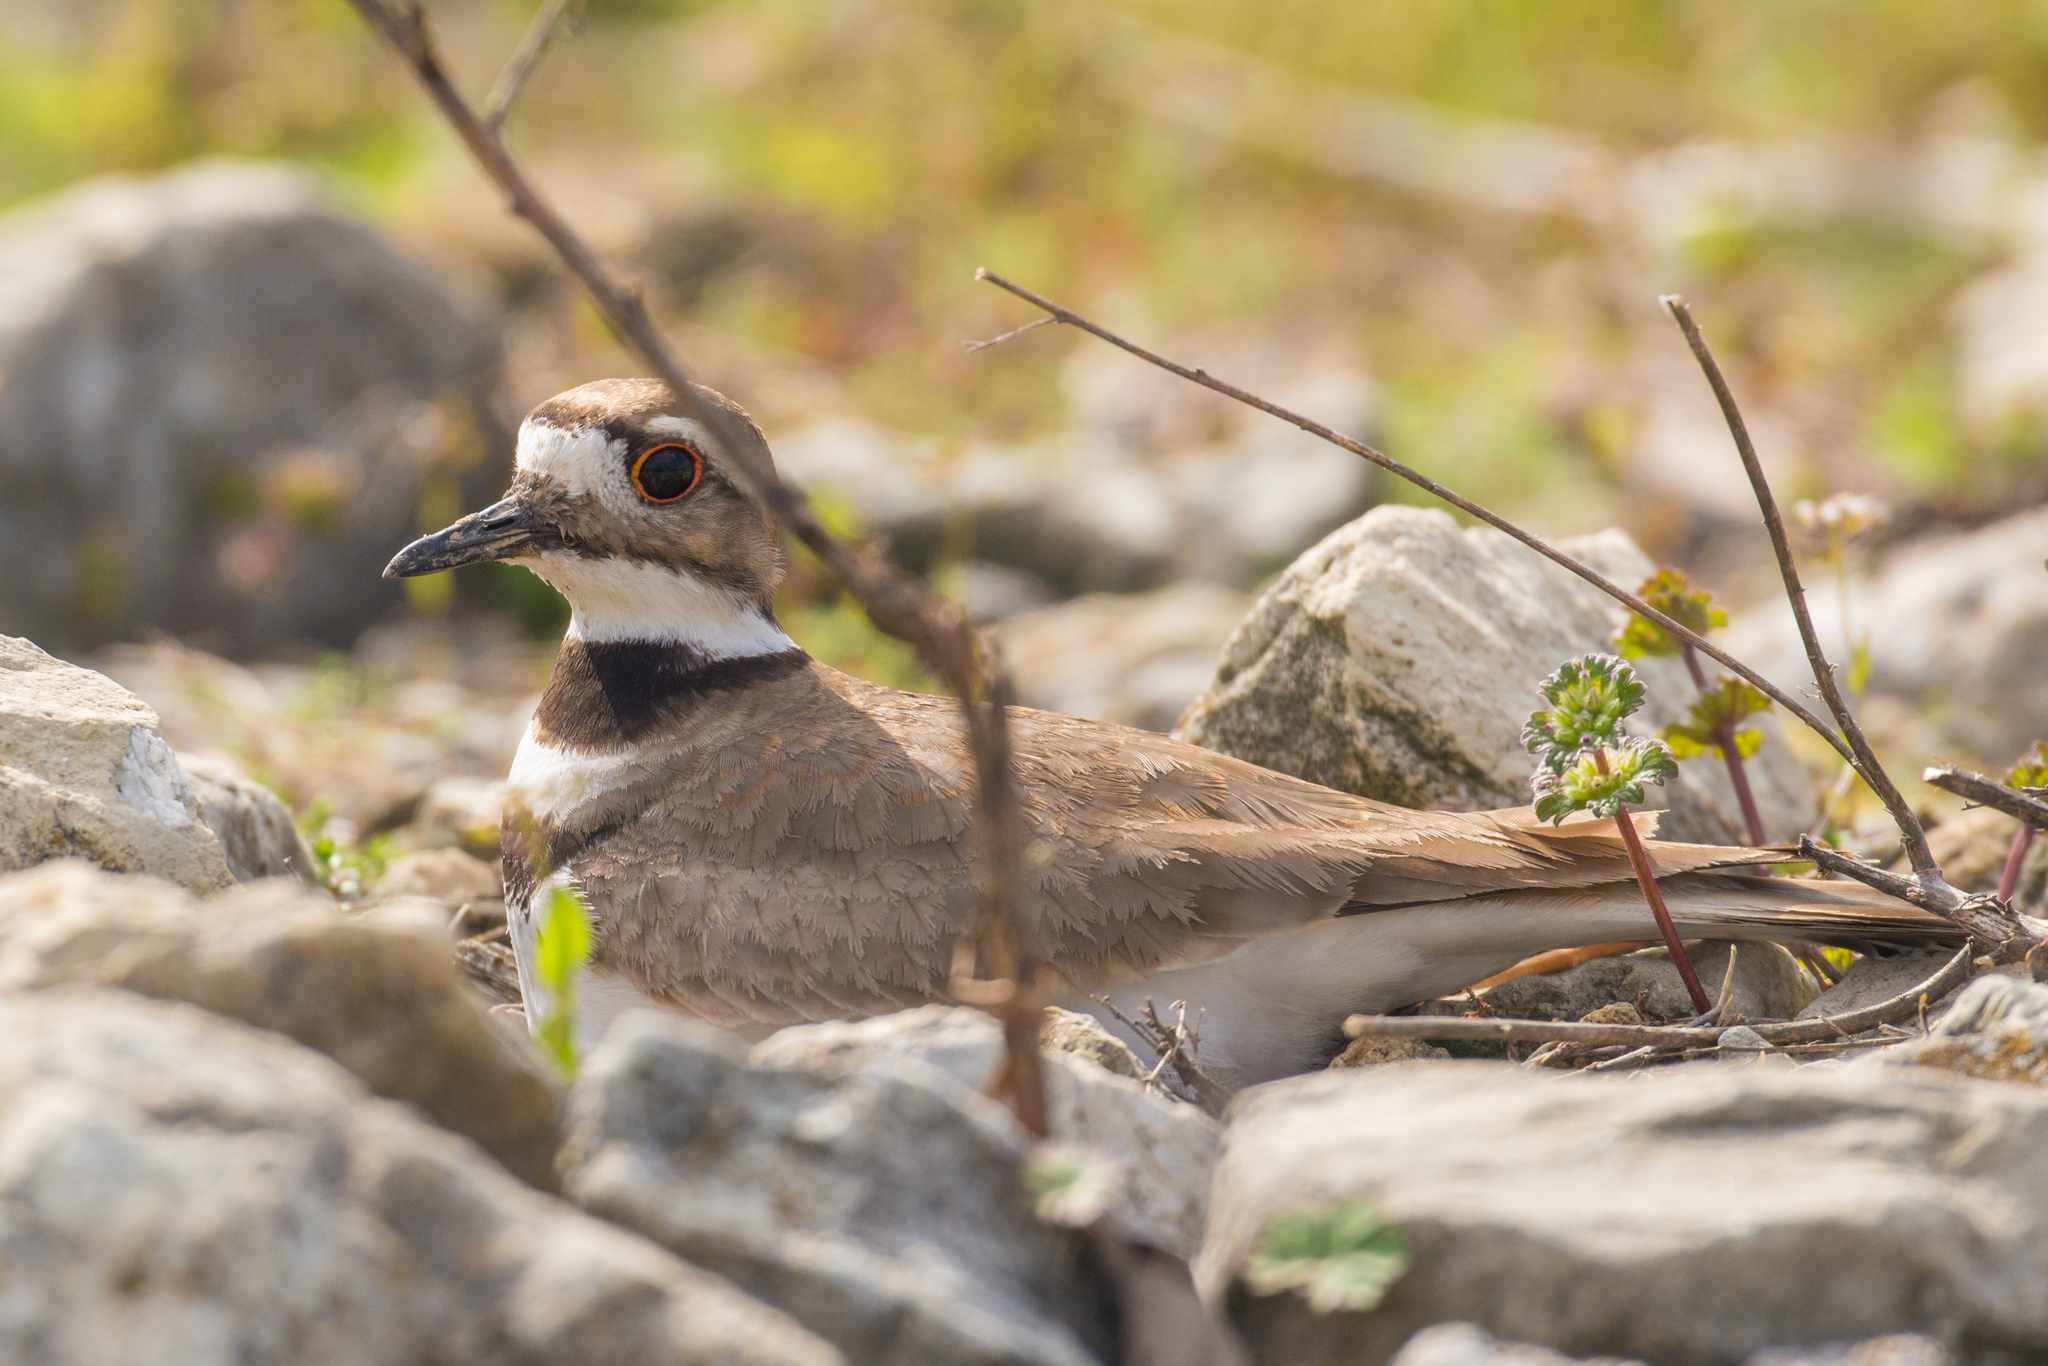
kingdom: Animalia
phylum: Chordata
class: Aves
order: Charadriiformes
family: Charadriidae
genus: Charadrius
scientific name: Charadrius vociferus
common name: Killdeer
